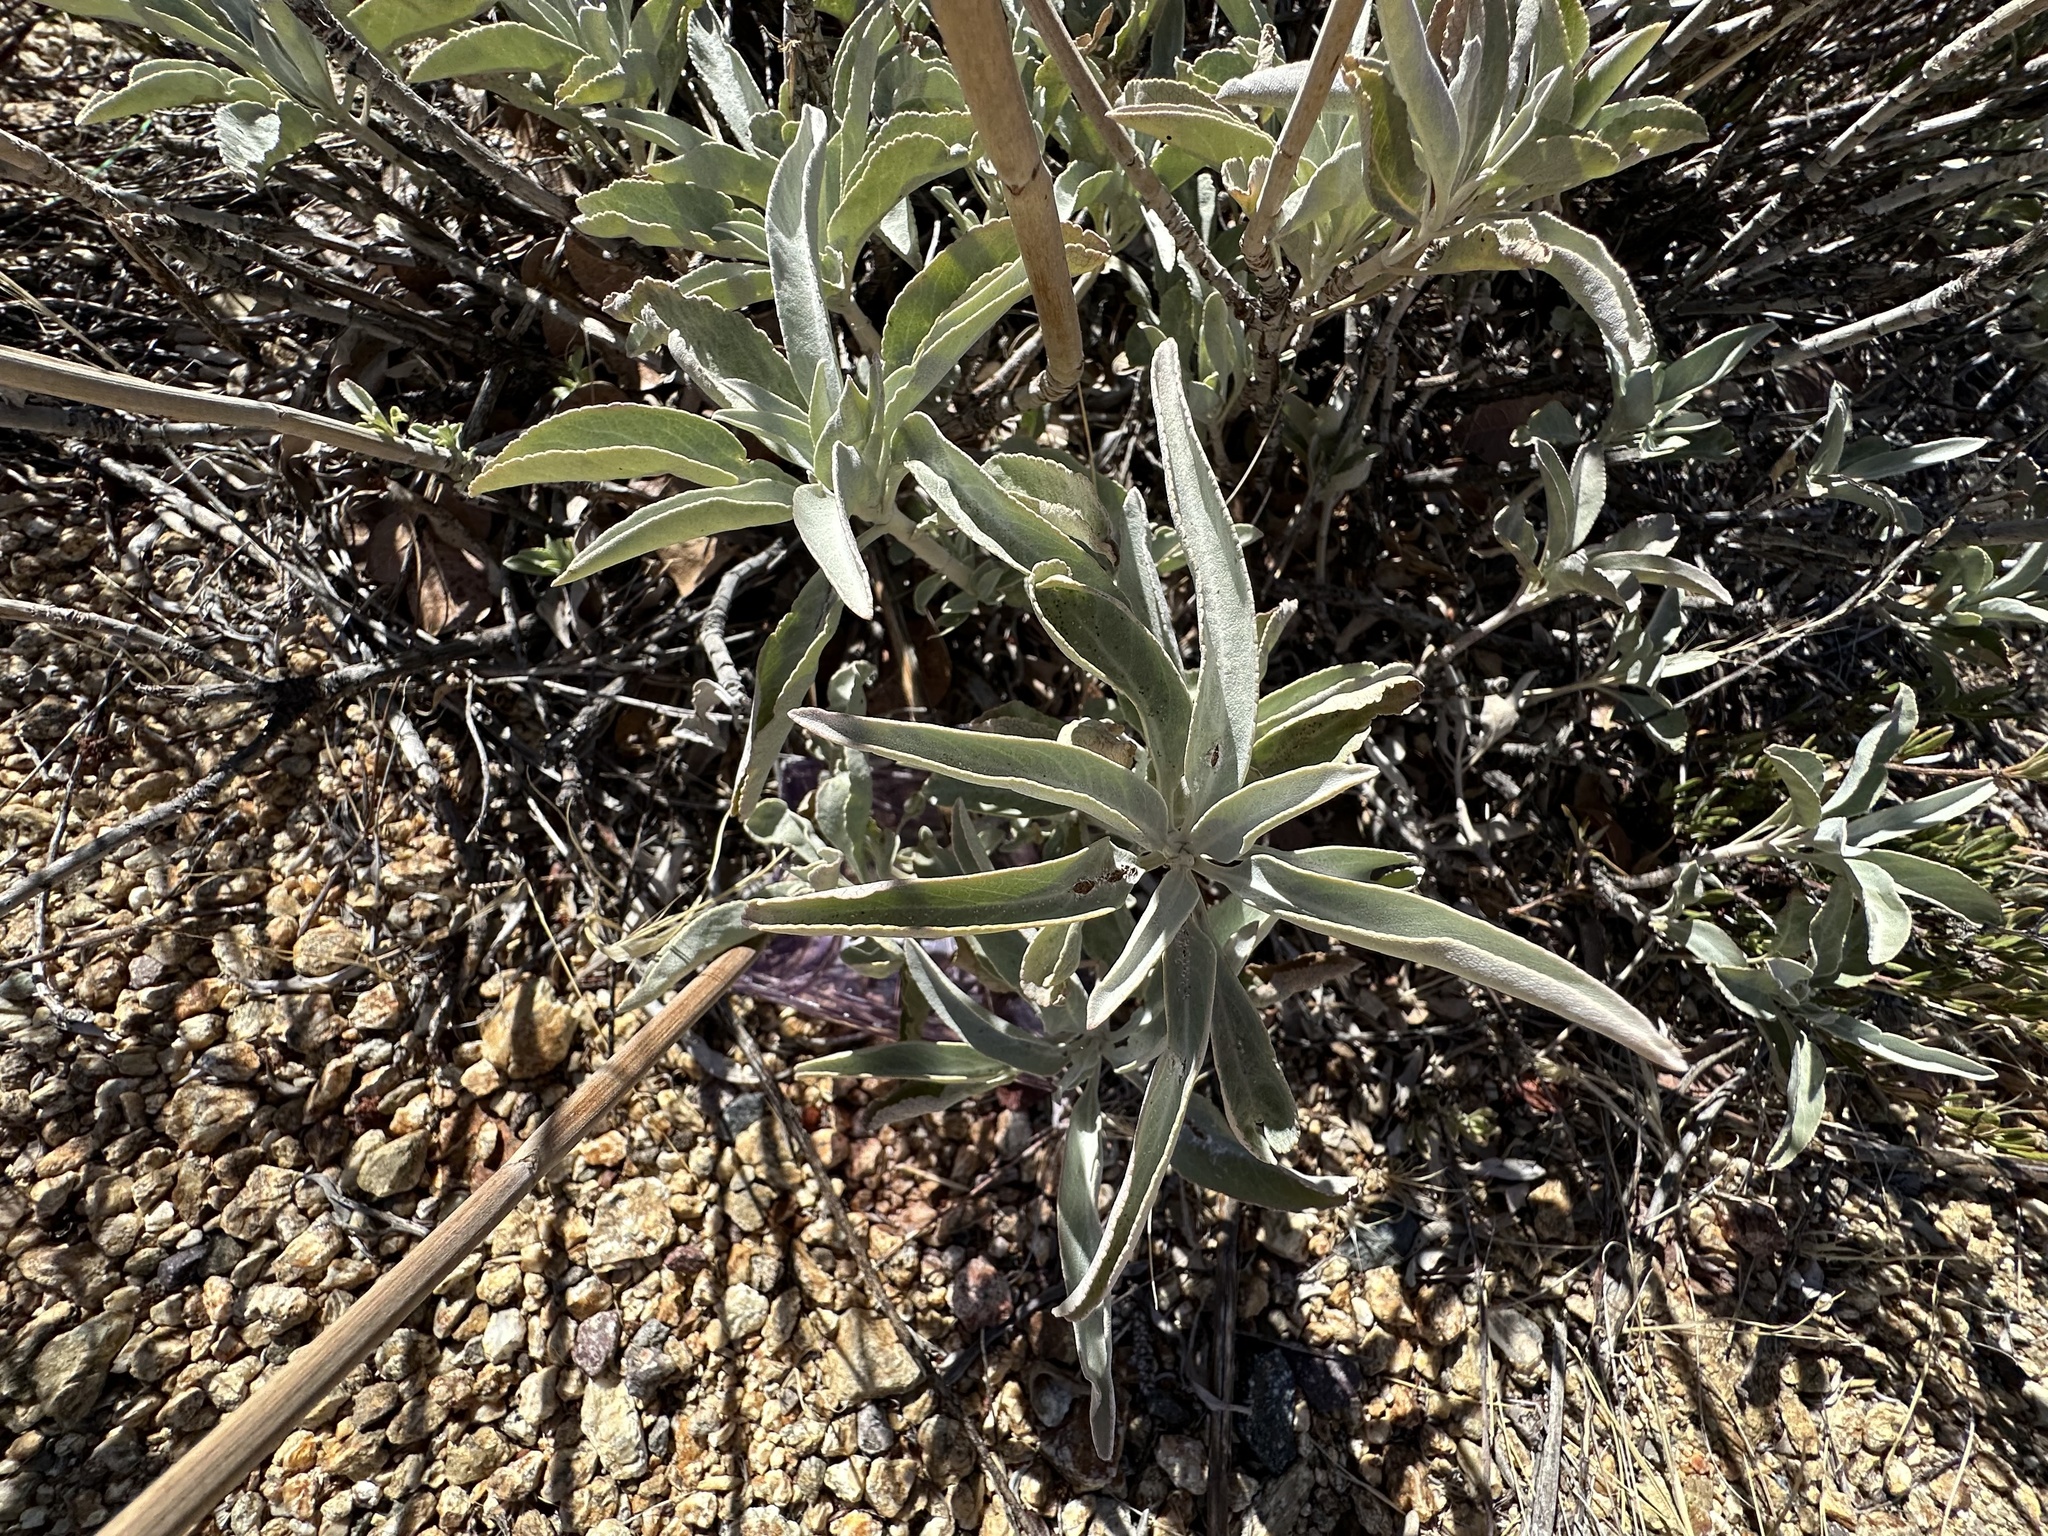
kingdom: Plantae
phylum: Tracheophyta
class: Magnoliopsida
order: Lamiales
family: Lamiaceae
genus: Salvia
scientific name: Salvia apiana
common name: White sage
